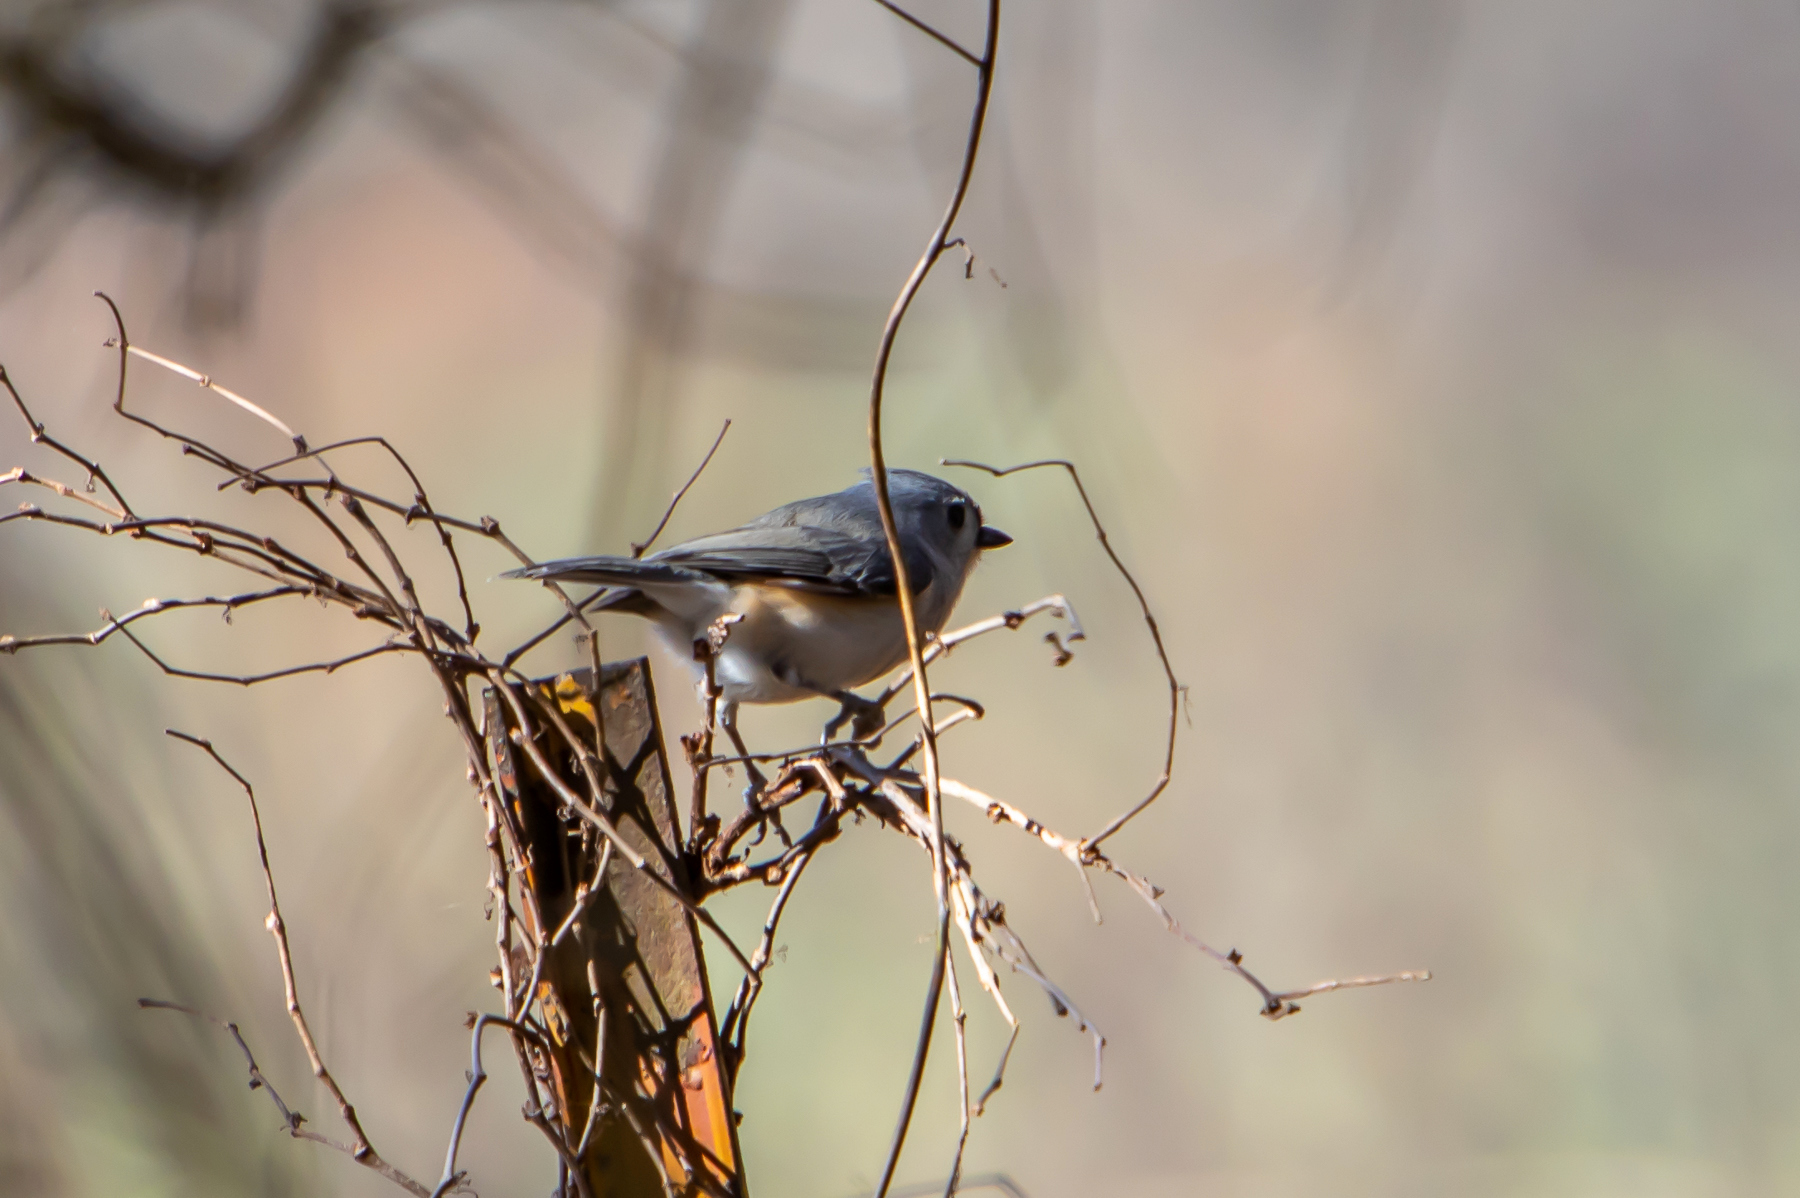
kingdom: Animalia
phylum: Chordata
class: Aves
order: Passeriformes
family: Paridae
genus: Baeolophus
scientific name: Baeolophus bicolor
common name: Tufted titmouse
